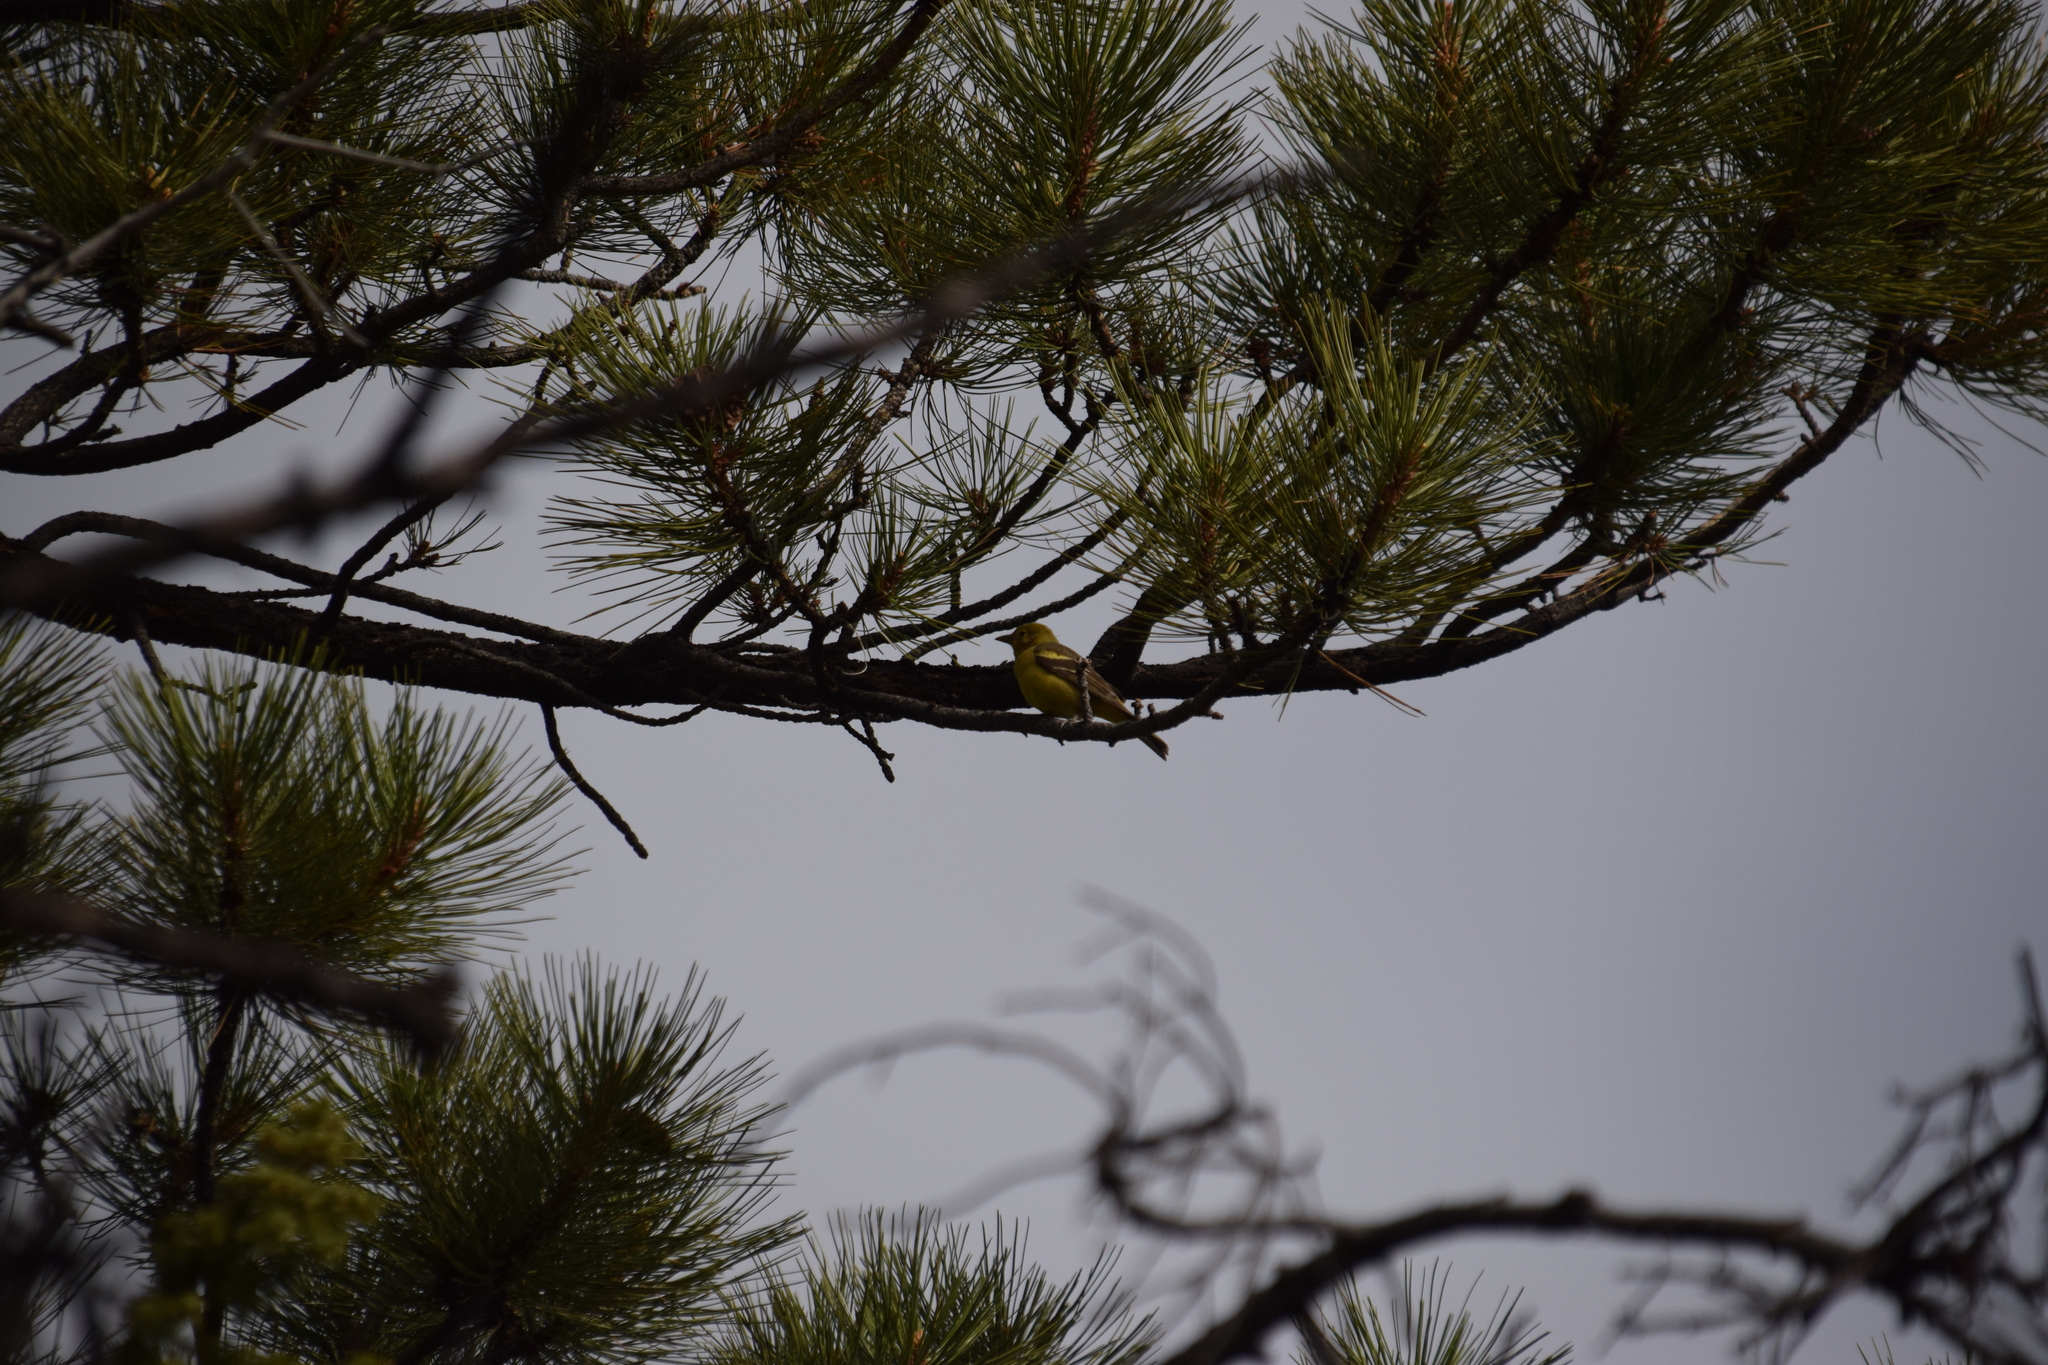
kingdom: Animalia
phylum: Chordata
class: Aves
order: Passeriformes
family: Cardinalidae
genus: Piranga
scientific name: Piranga ludoviciana
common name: Western tanager
